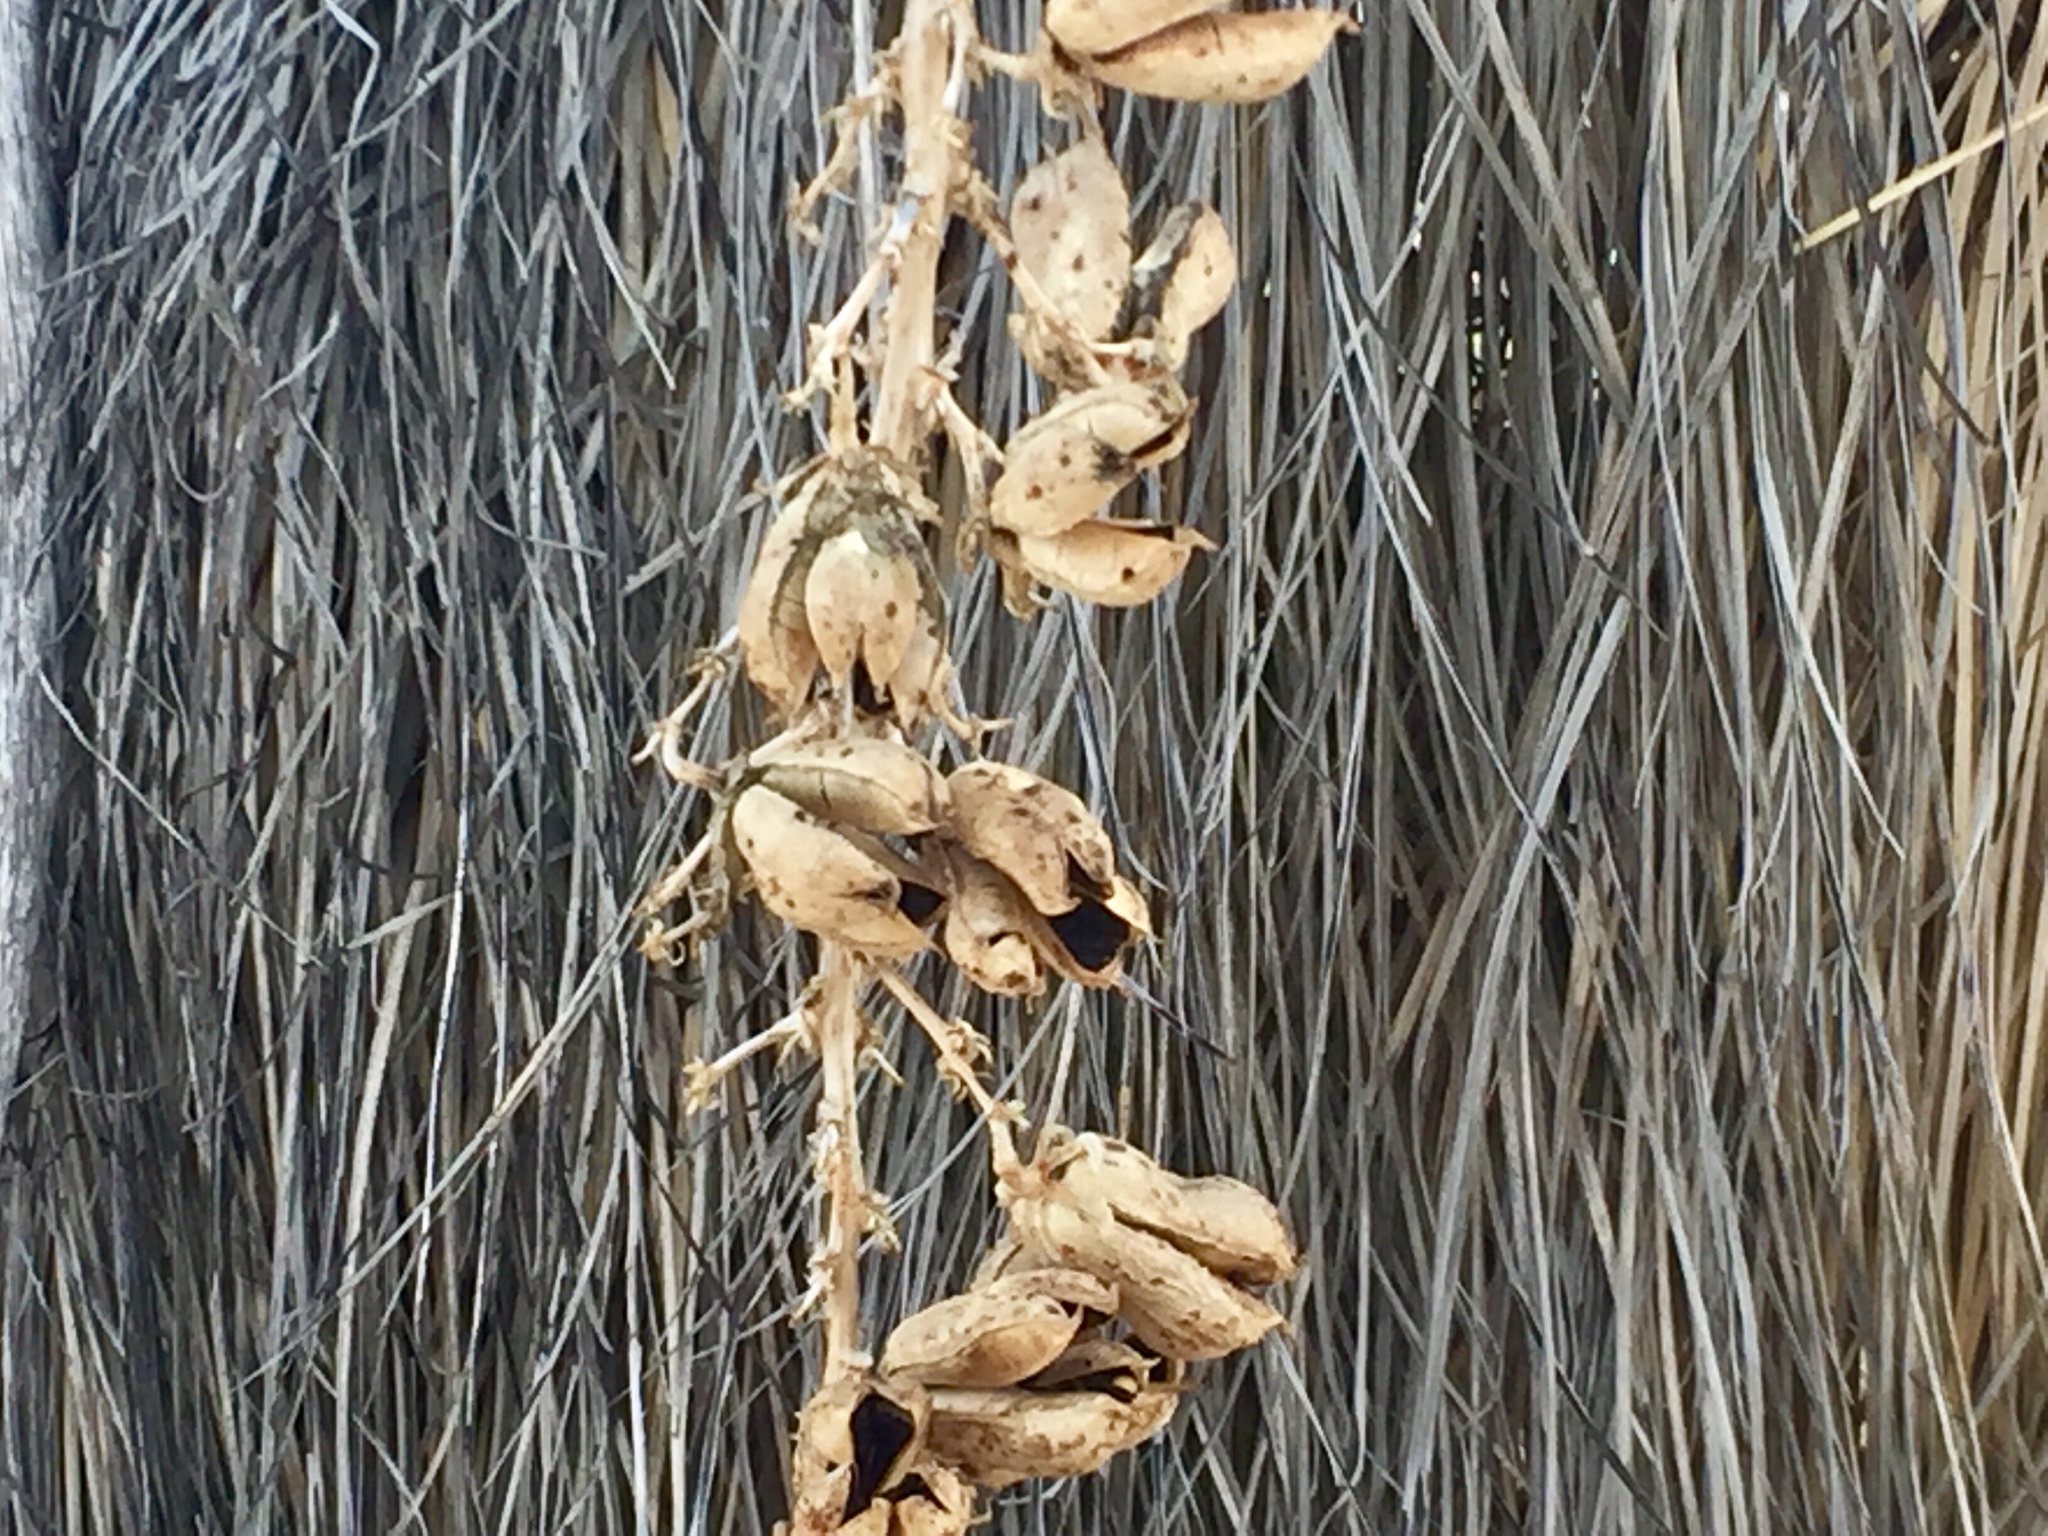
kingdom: Plantae
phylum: Tracheophyta
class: Liliopsida
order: Asparagales
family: Asparagaceae
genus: Yucca
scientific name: Yucca elata
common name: Palmella
